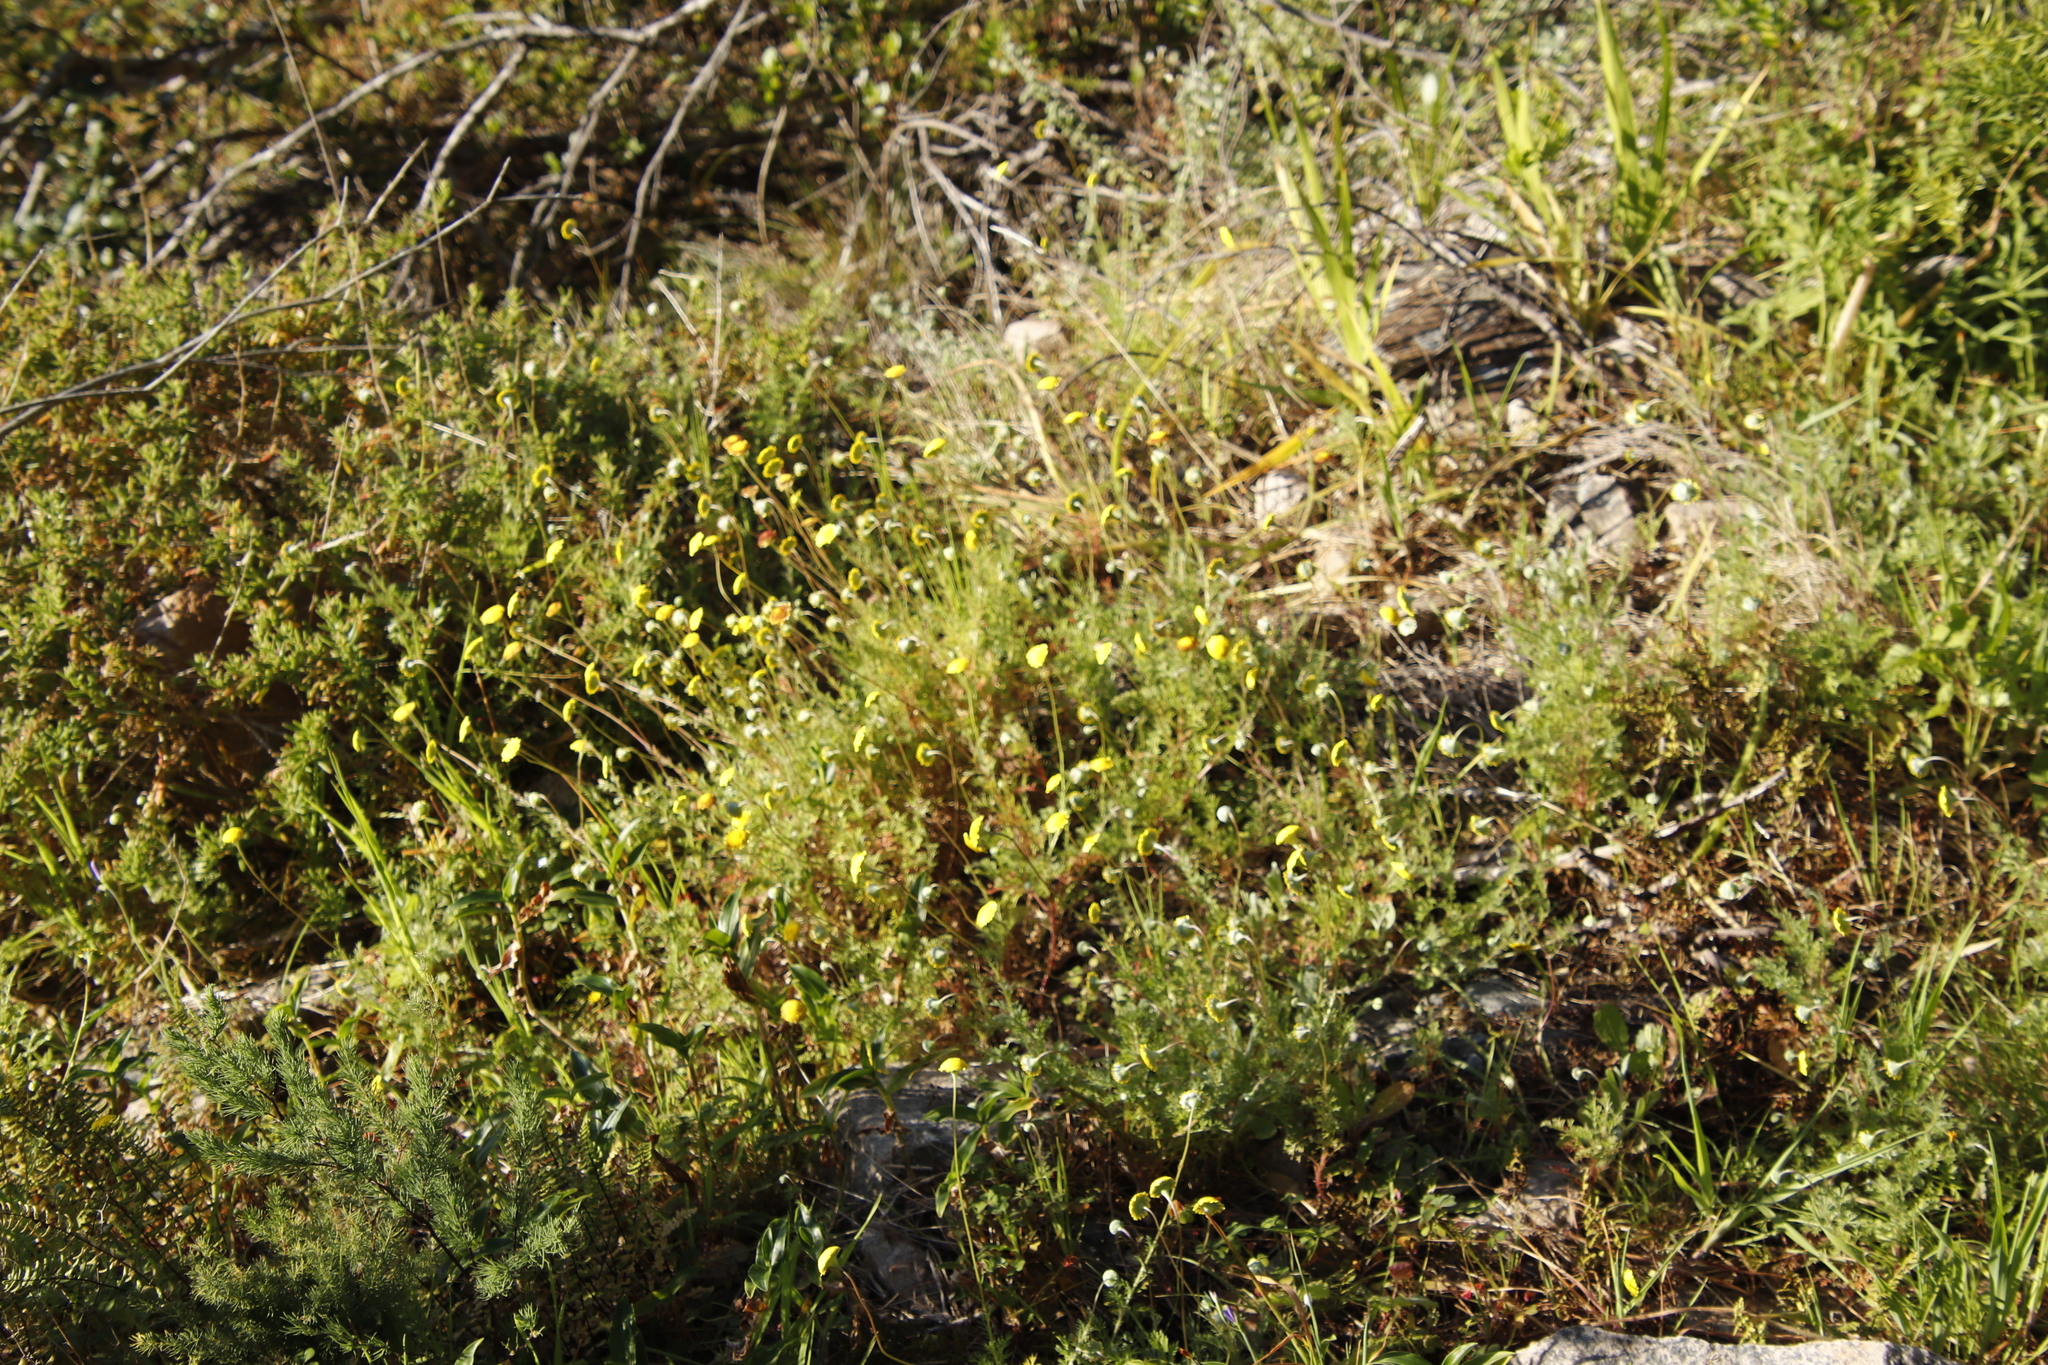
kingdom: Plantae
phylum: Tracheophyta
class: Magnoliopsida
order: Asterales
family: Asteraceae
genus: Cotula
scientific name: Cotula pruinosa
